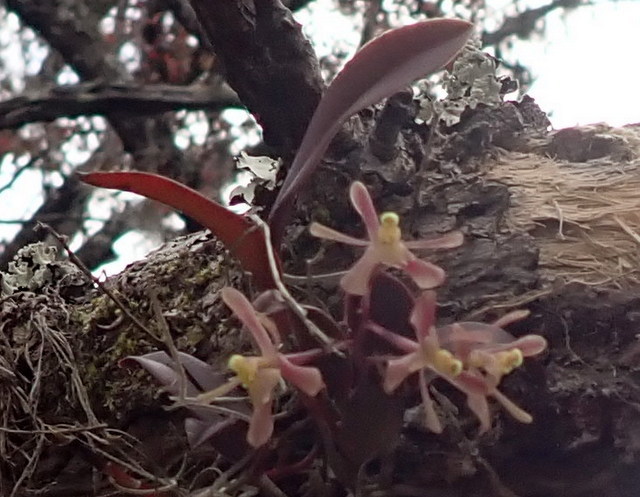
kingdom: Plantae
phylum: Tracheophyta
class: Liliopsida
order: Asparagales
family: Orchidaceae
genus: Epidendrum
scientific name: Epidendrum conopseum
